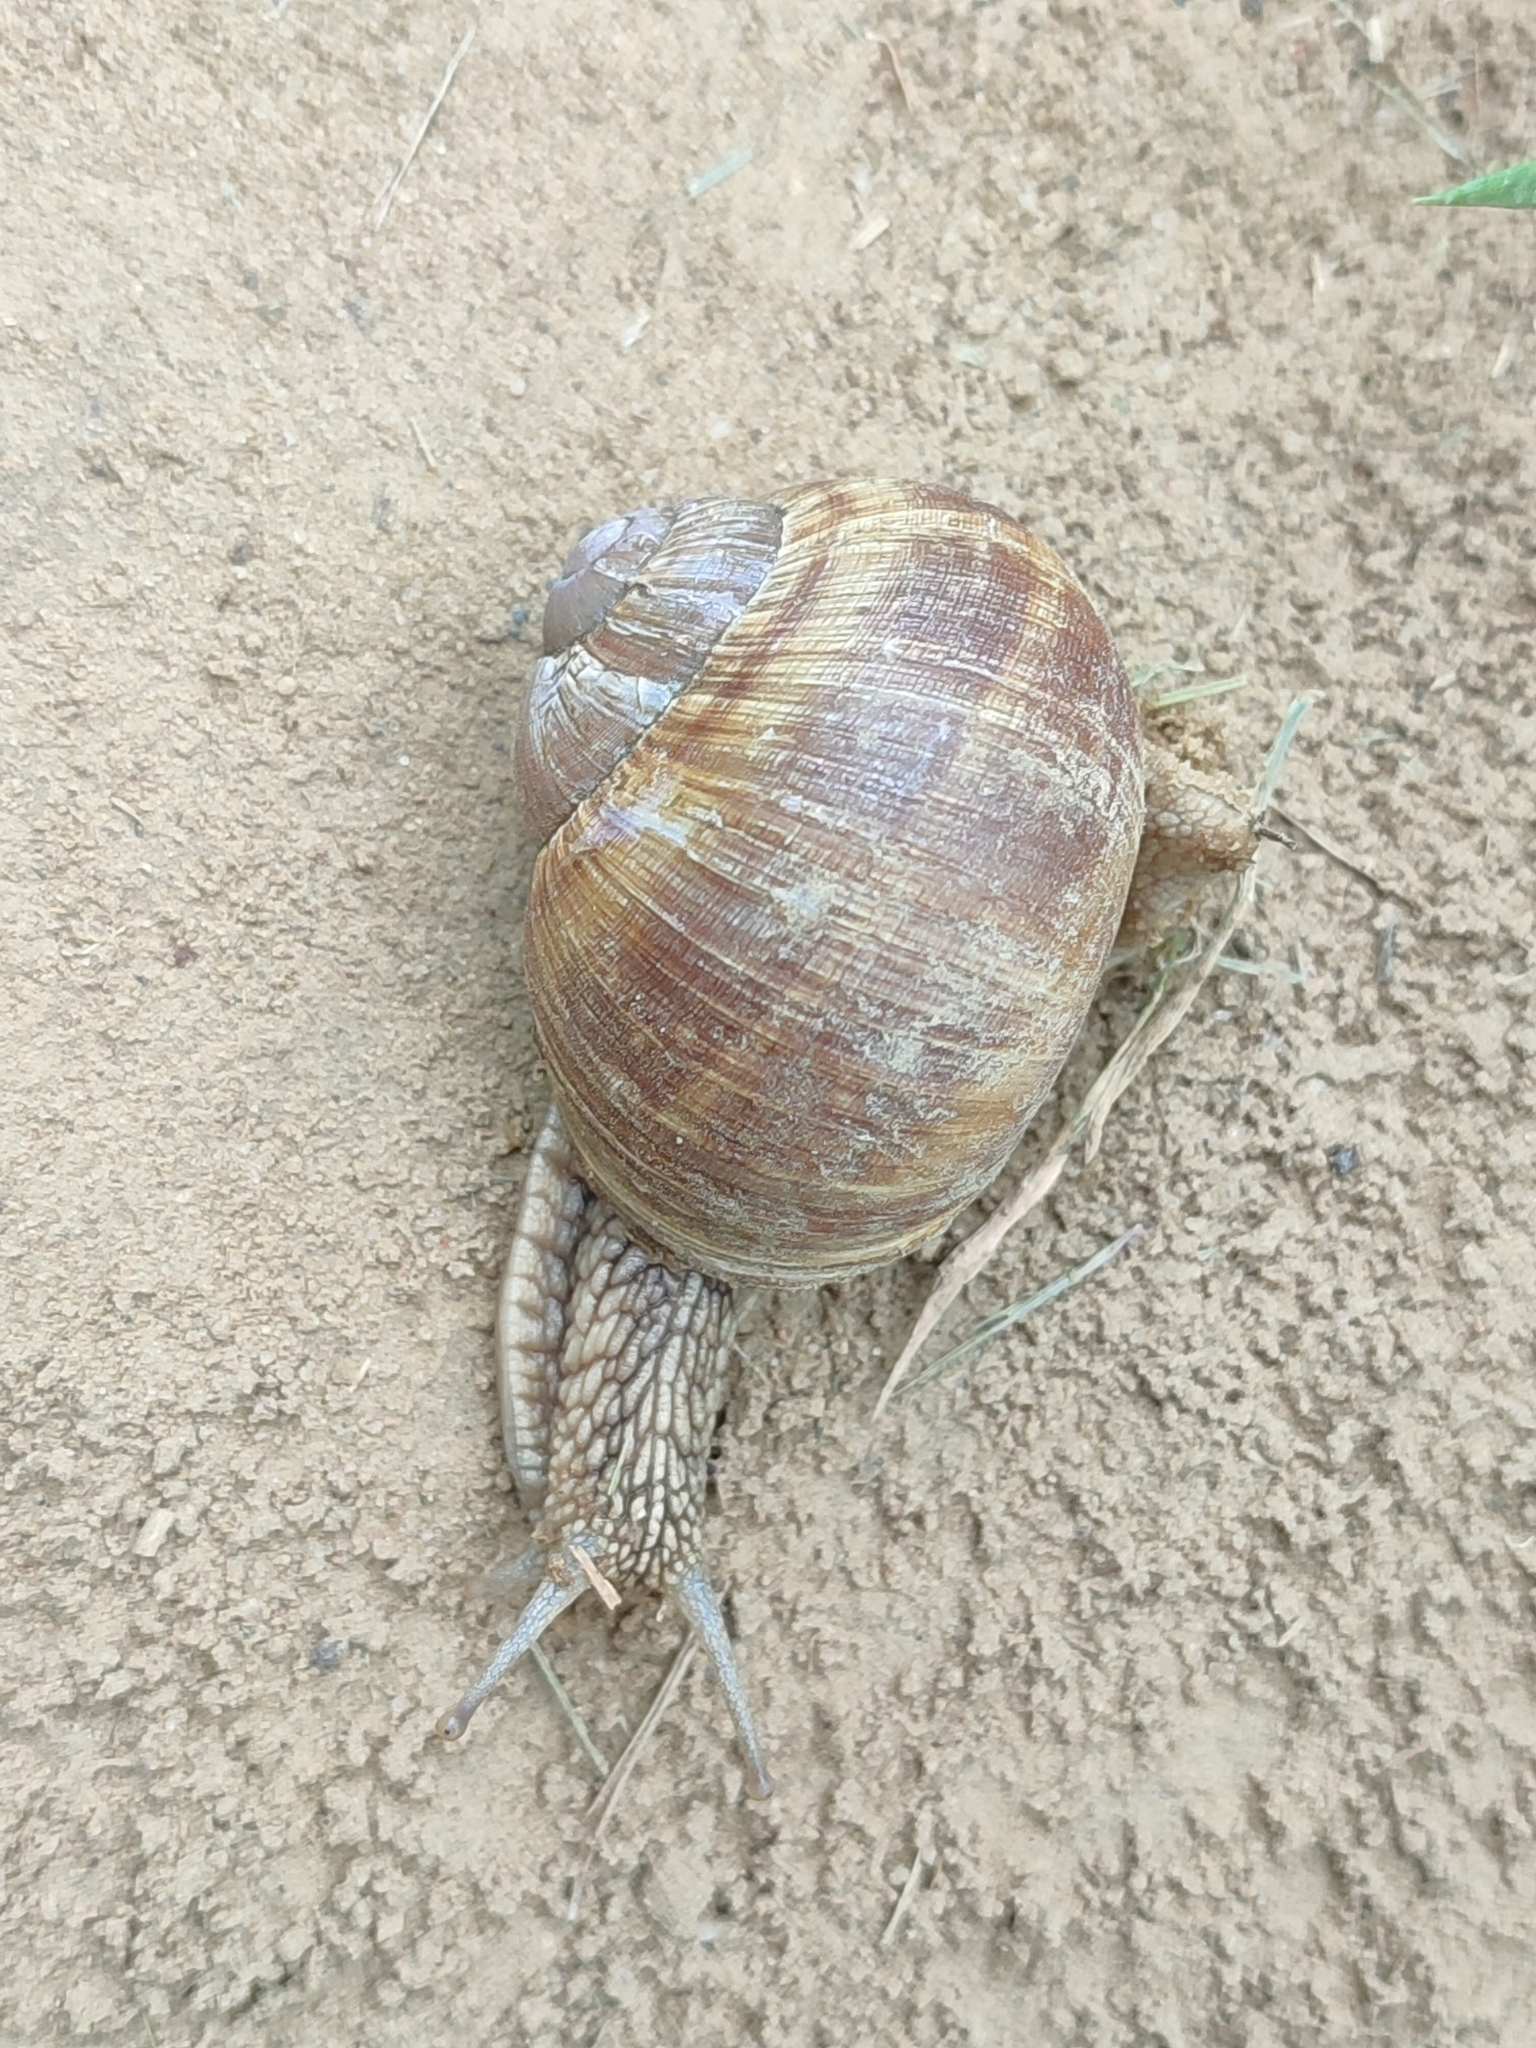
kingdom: Animalia
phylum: Mollusca
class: Gastropoda
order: Stylommatophora
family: Helicidae
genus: Helix
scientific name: Helix pomatia
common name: Roman snail
